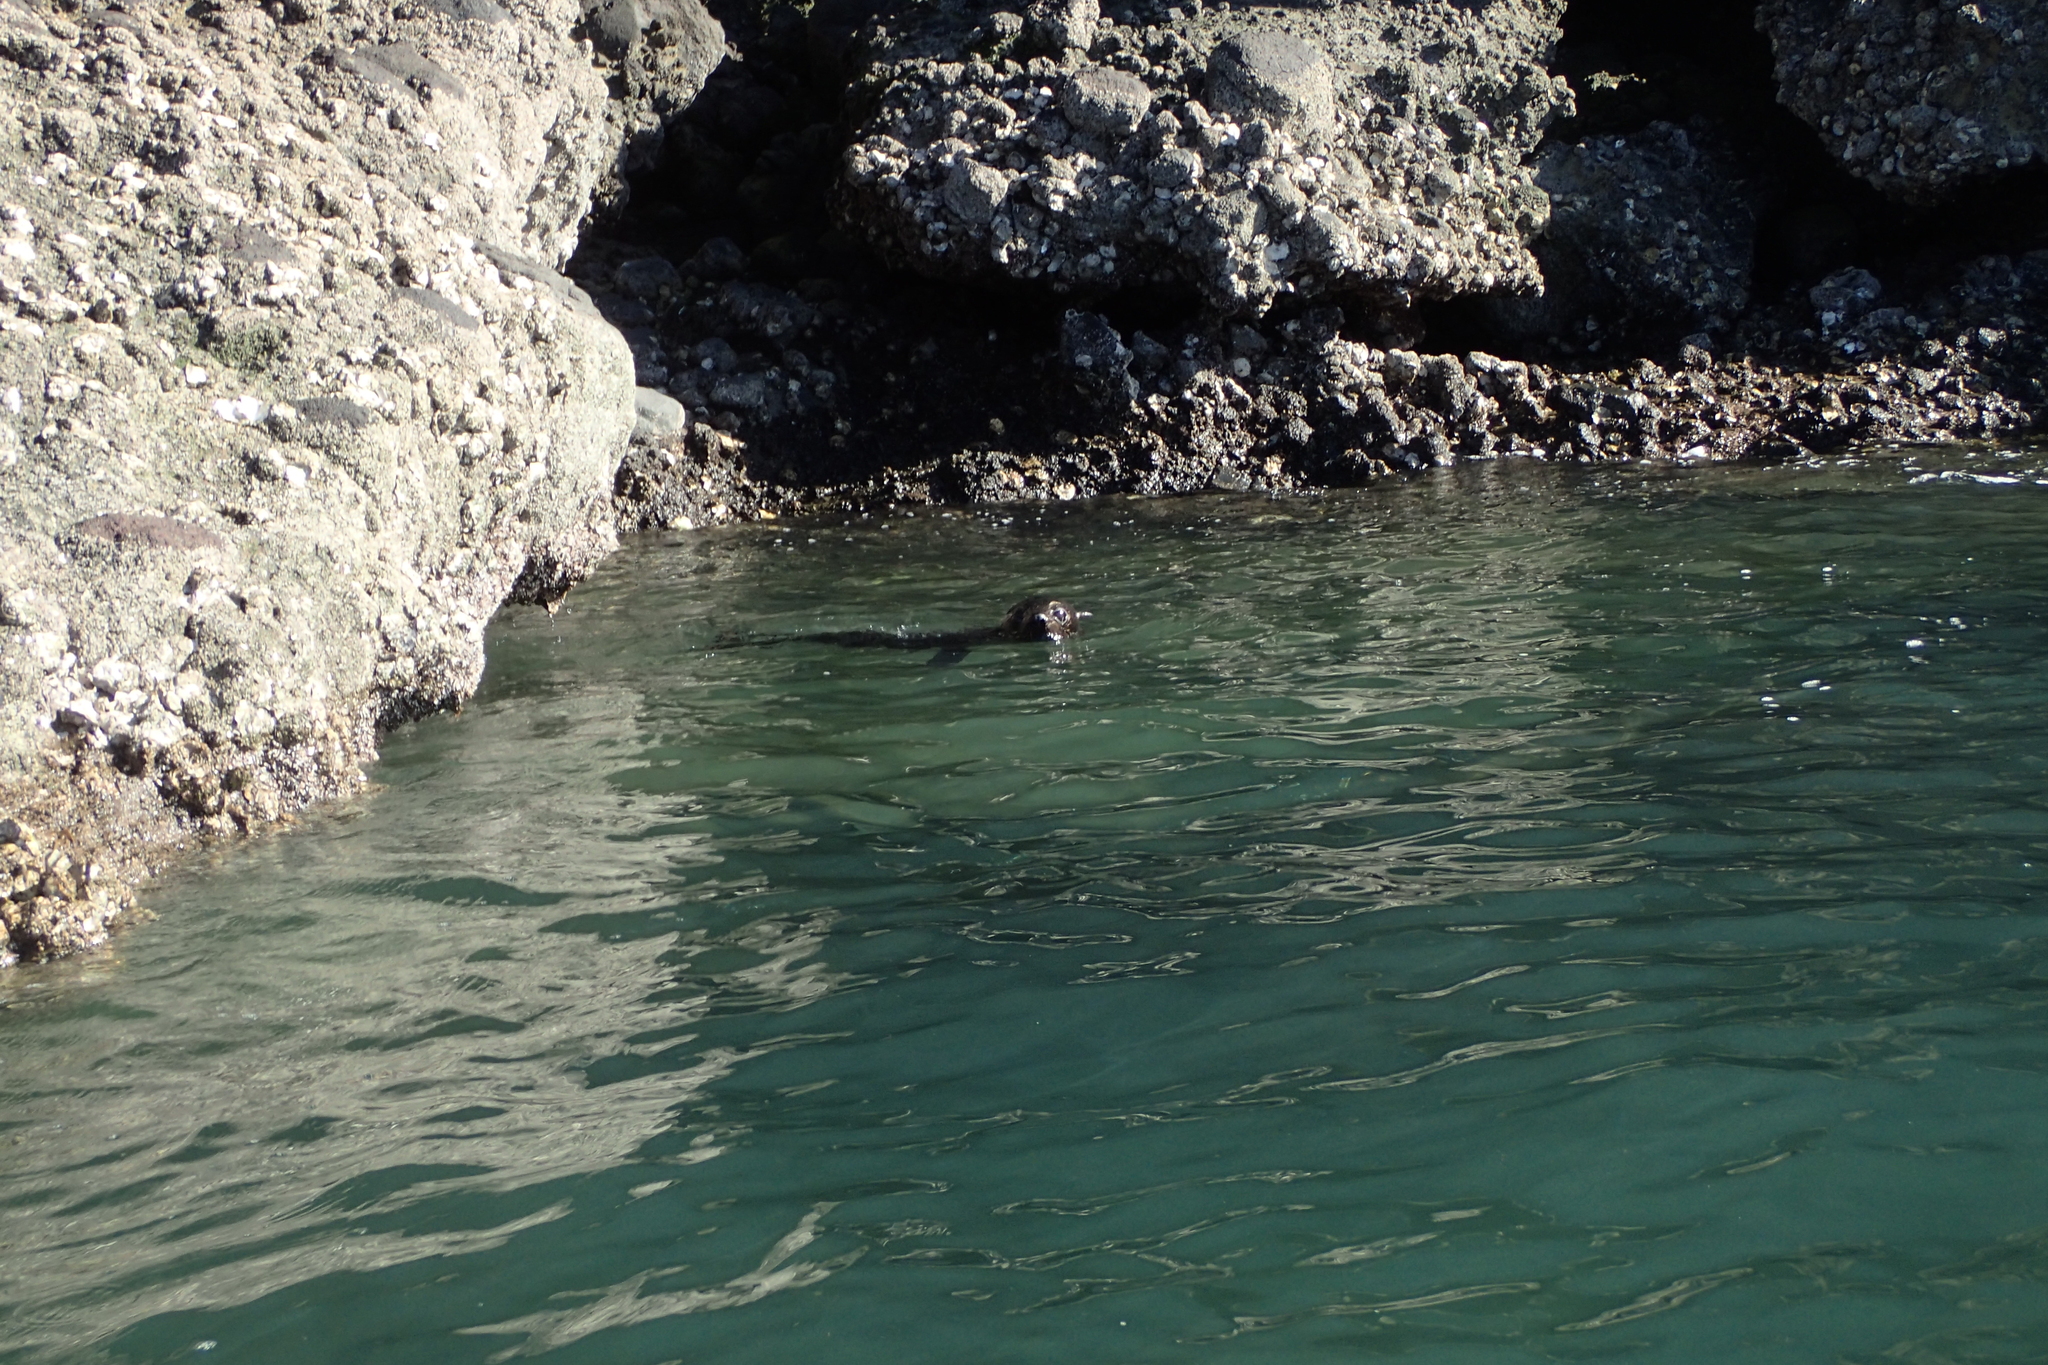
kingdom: Animalia
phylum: Chordata
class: Mammalia
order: Carnivora
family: Otariidae
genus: Arctocephalus
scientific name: Arctocephalus forsteri
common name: New zealand fur seal
